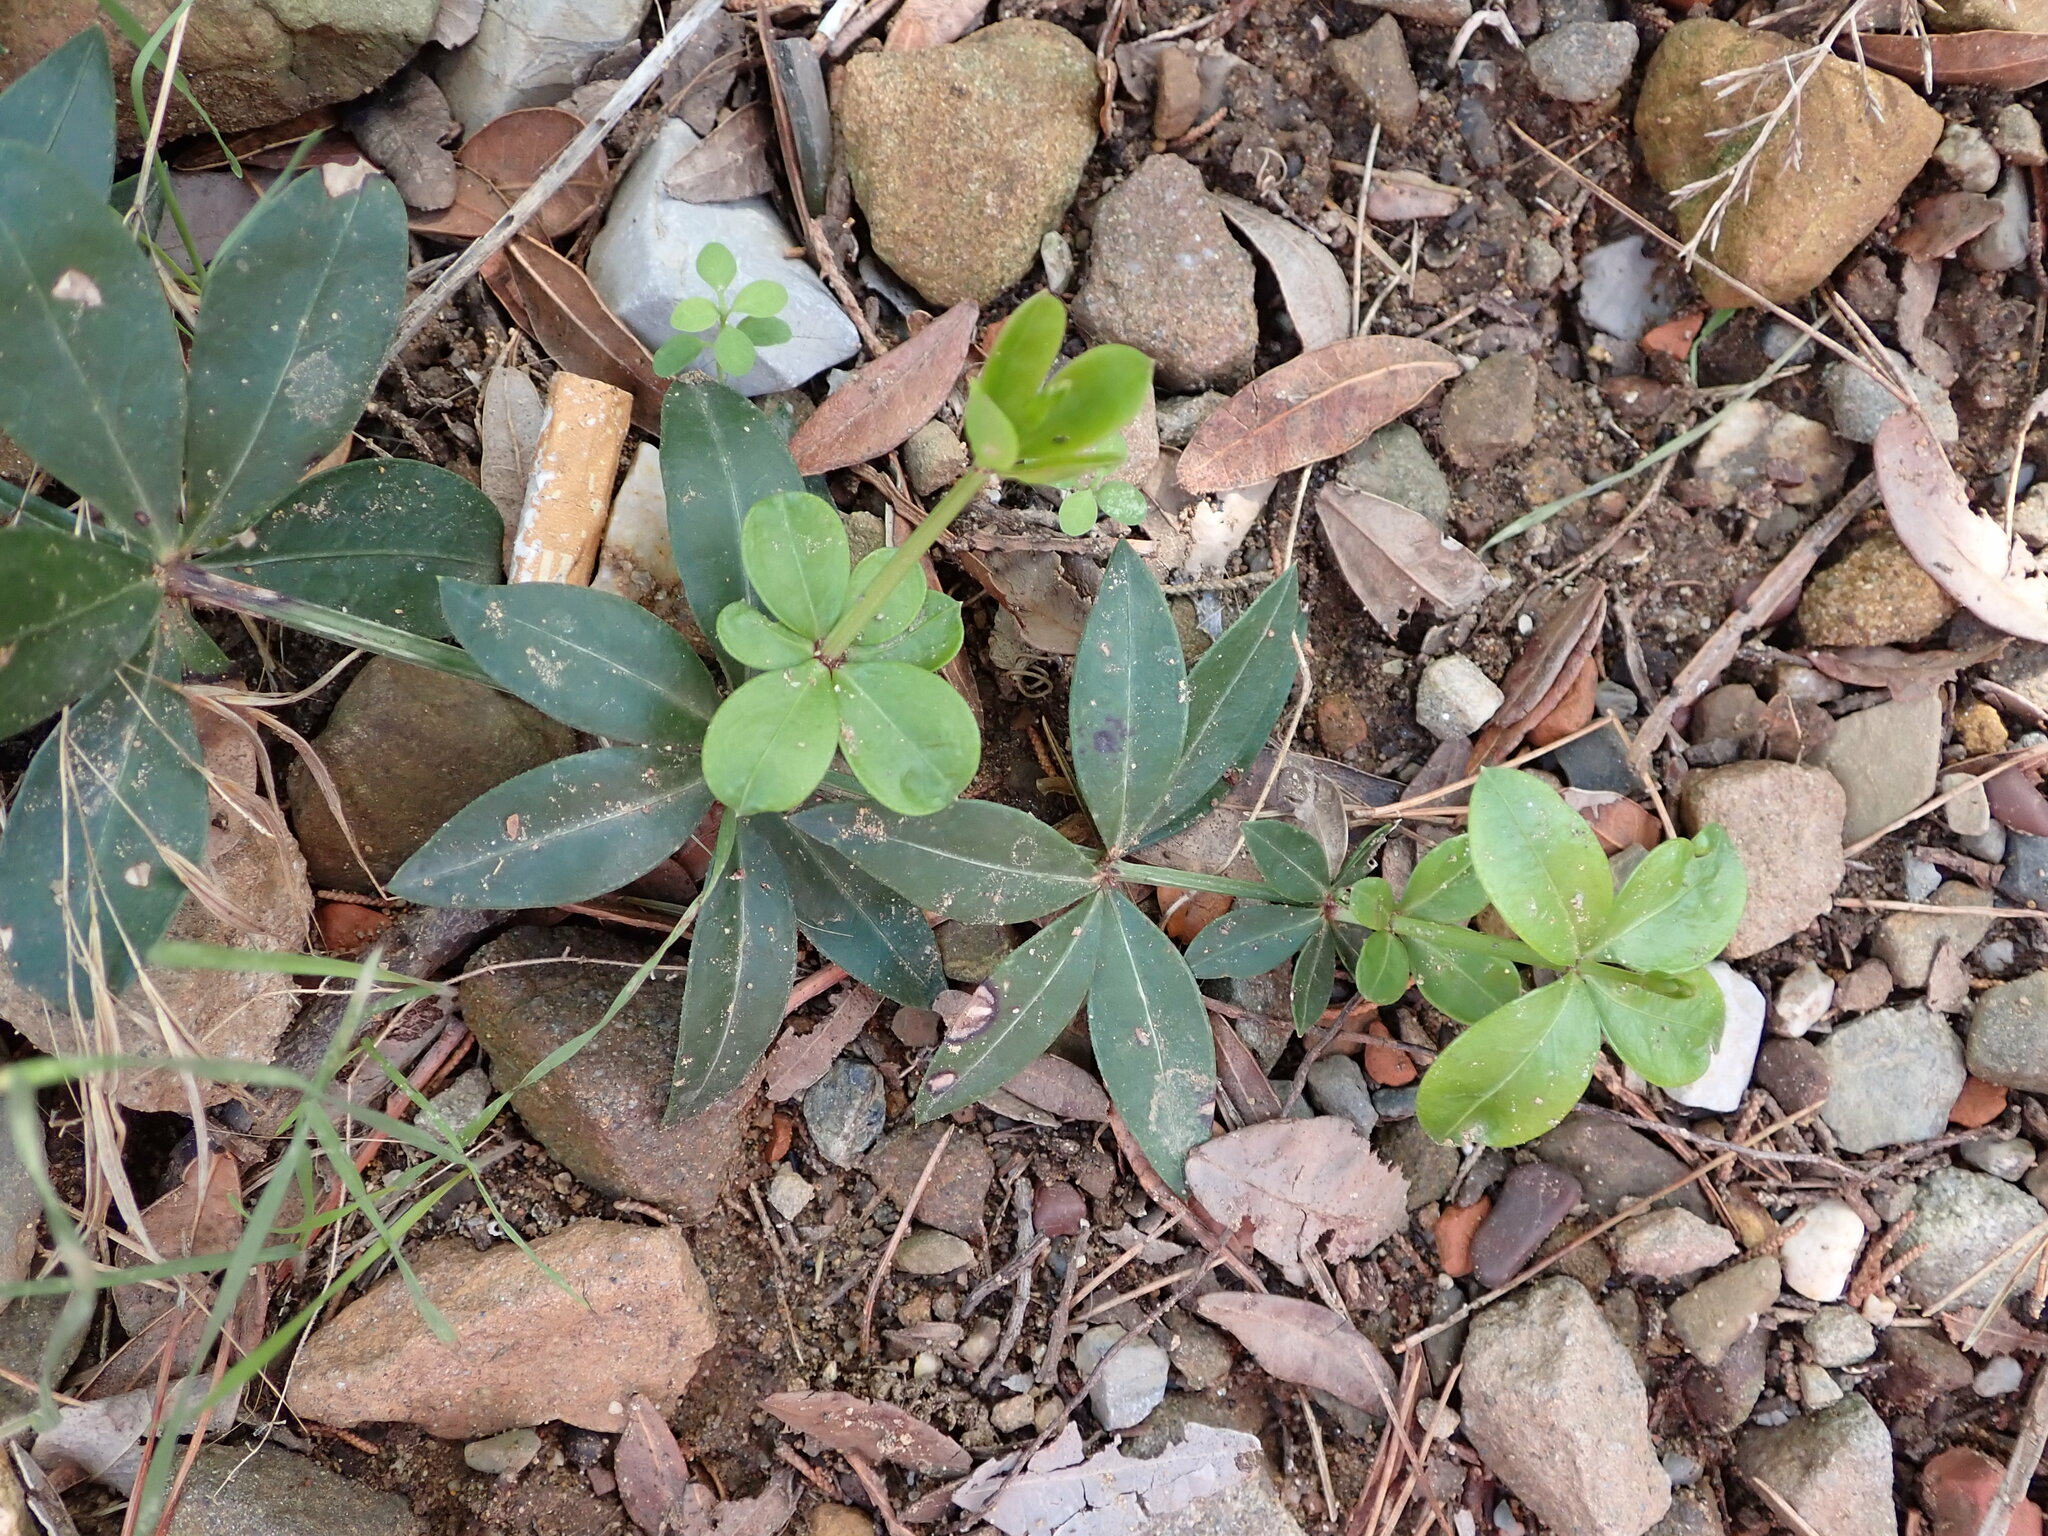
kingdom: Plantae
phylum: Tracheophyta
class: Magnoliopsida
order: Gentianales
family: Rubiaceae
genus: Rubia
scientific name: Rubia peregrina
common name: Wild madder
